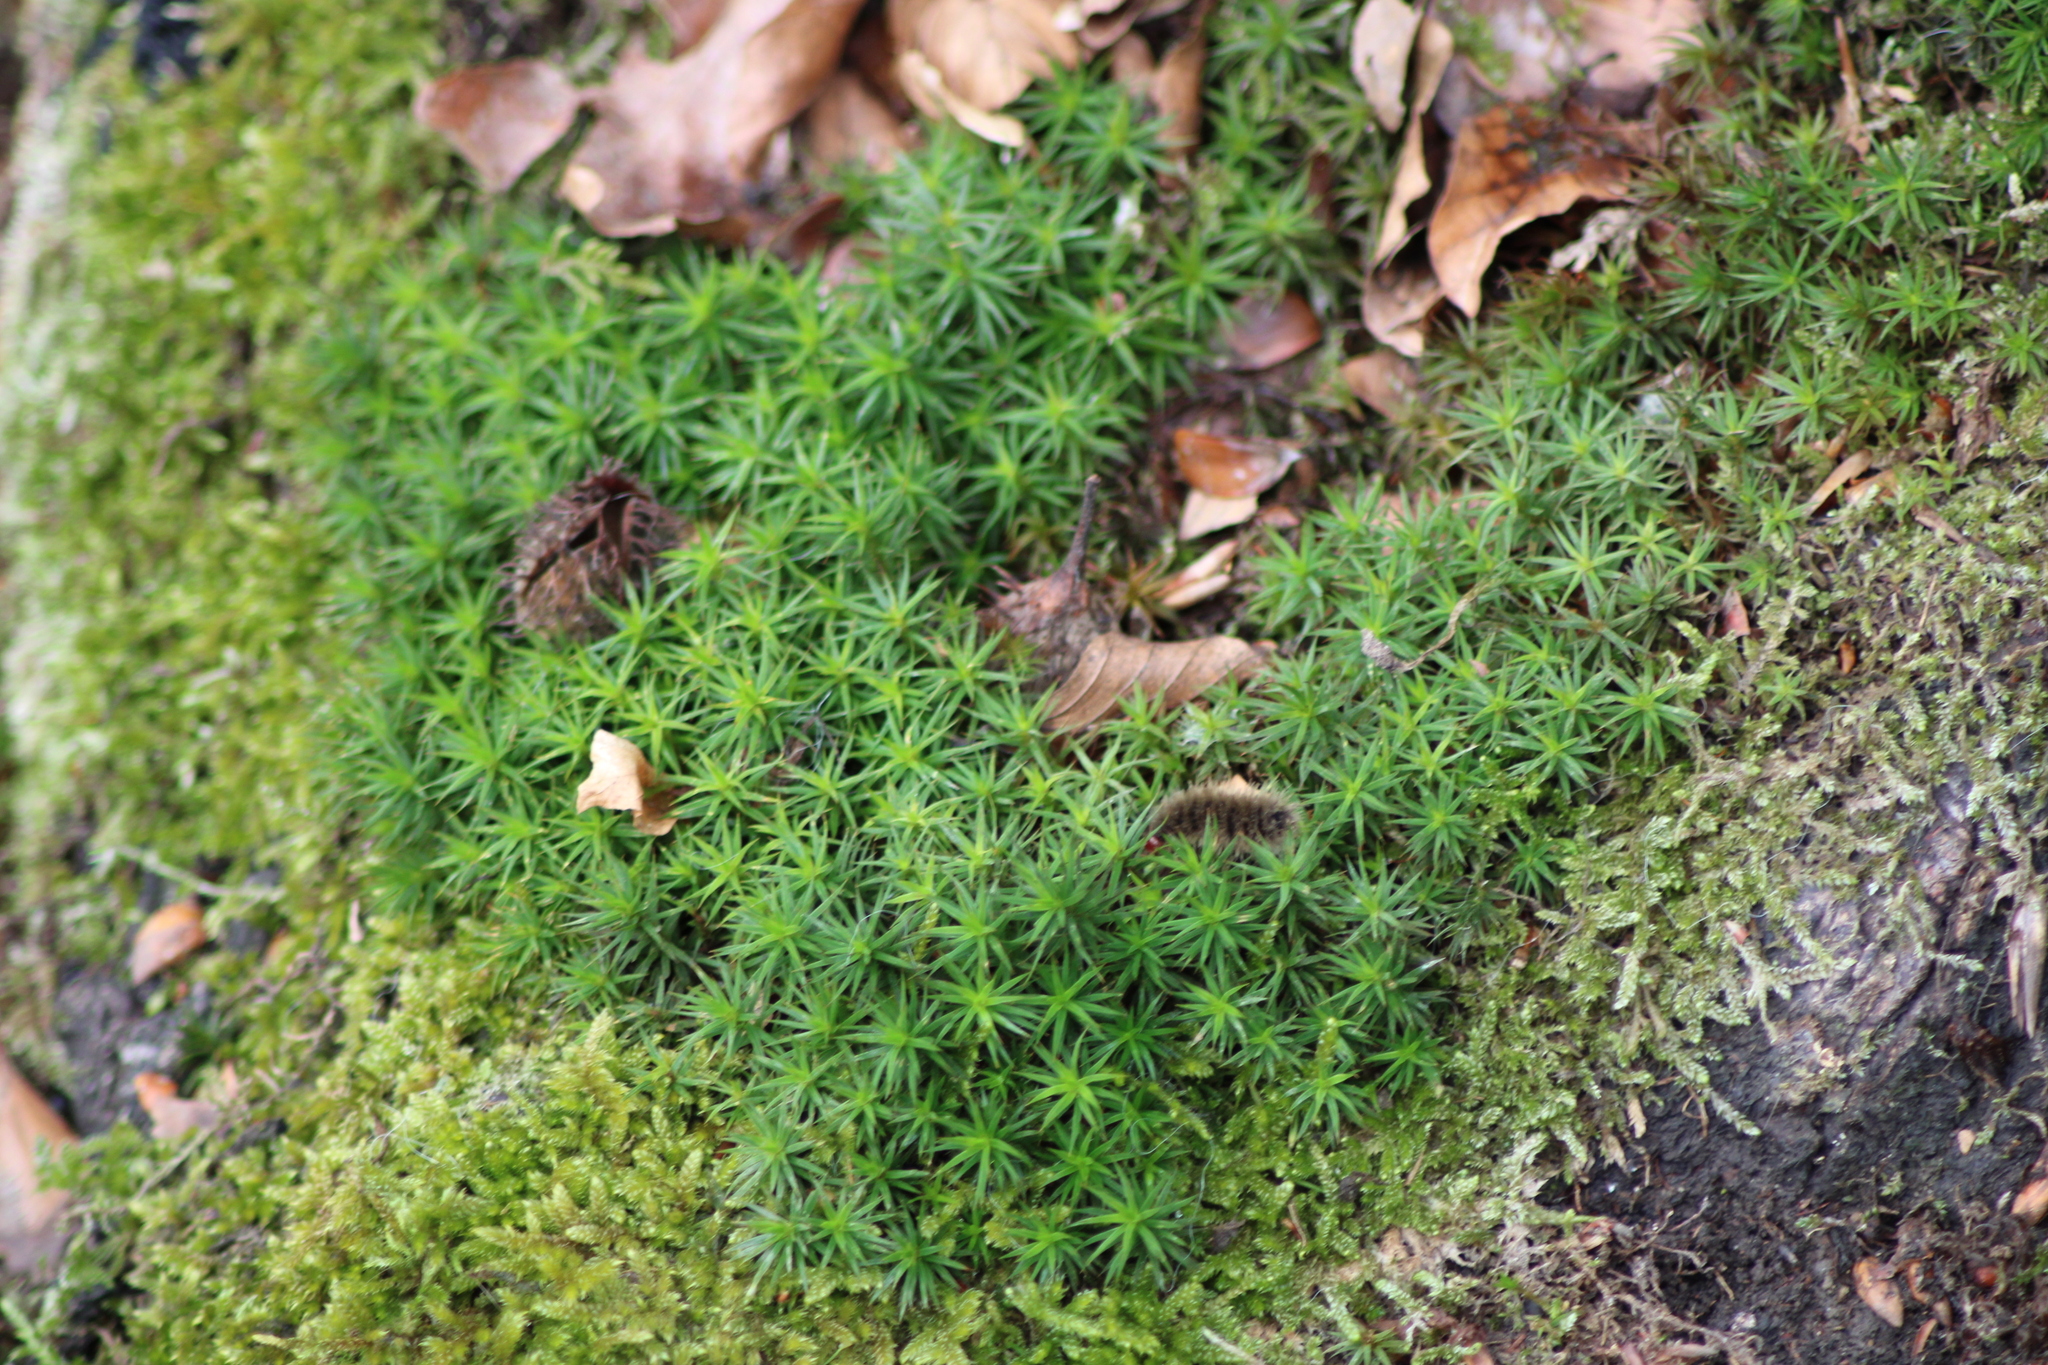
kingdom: Plantae
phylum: Bryophyta
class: Polytrichopsida
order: Polytrichales
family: Polytrichaceae
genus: Polytrichum
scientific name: Polytrichum formosum
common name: Bank haircap moss
